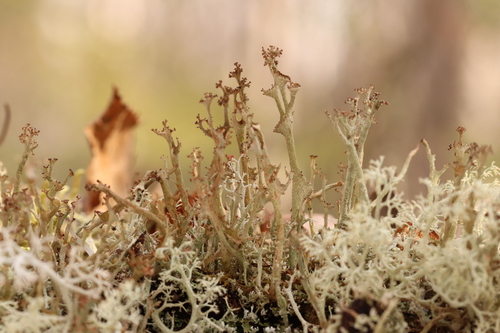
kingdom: Fungi
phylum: Ascomycota
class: Lecanoromycetes
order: Lecanorales
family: Cladoniaceae
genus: Cladonia
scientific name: Cladonia
